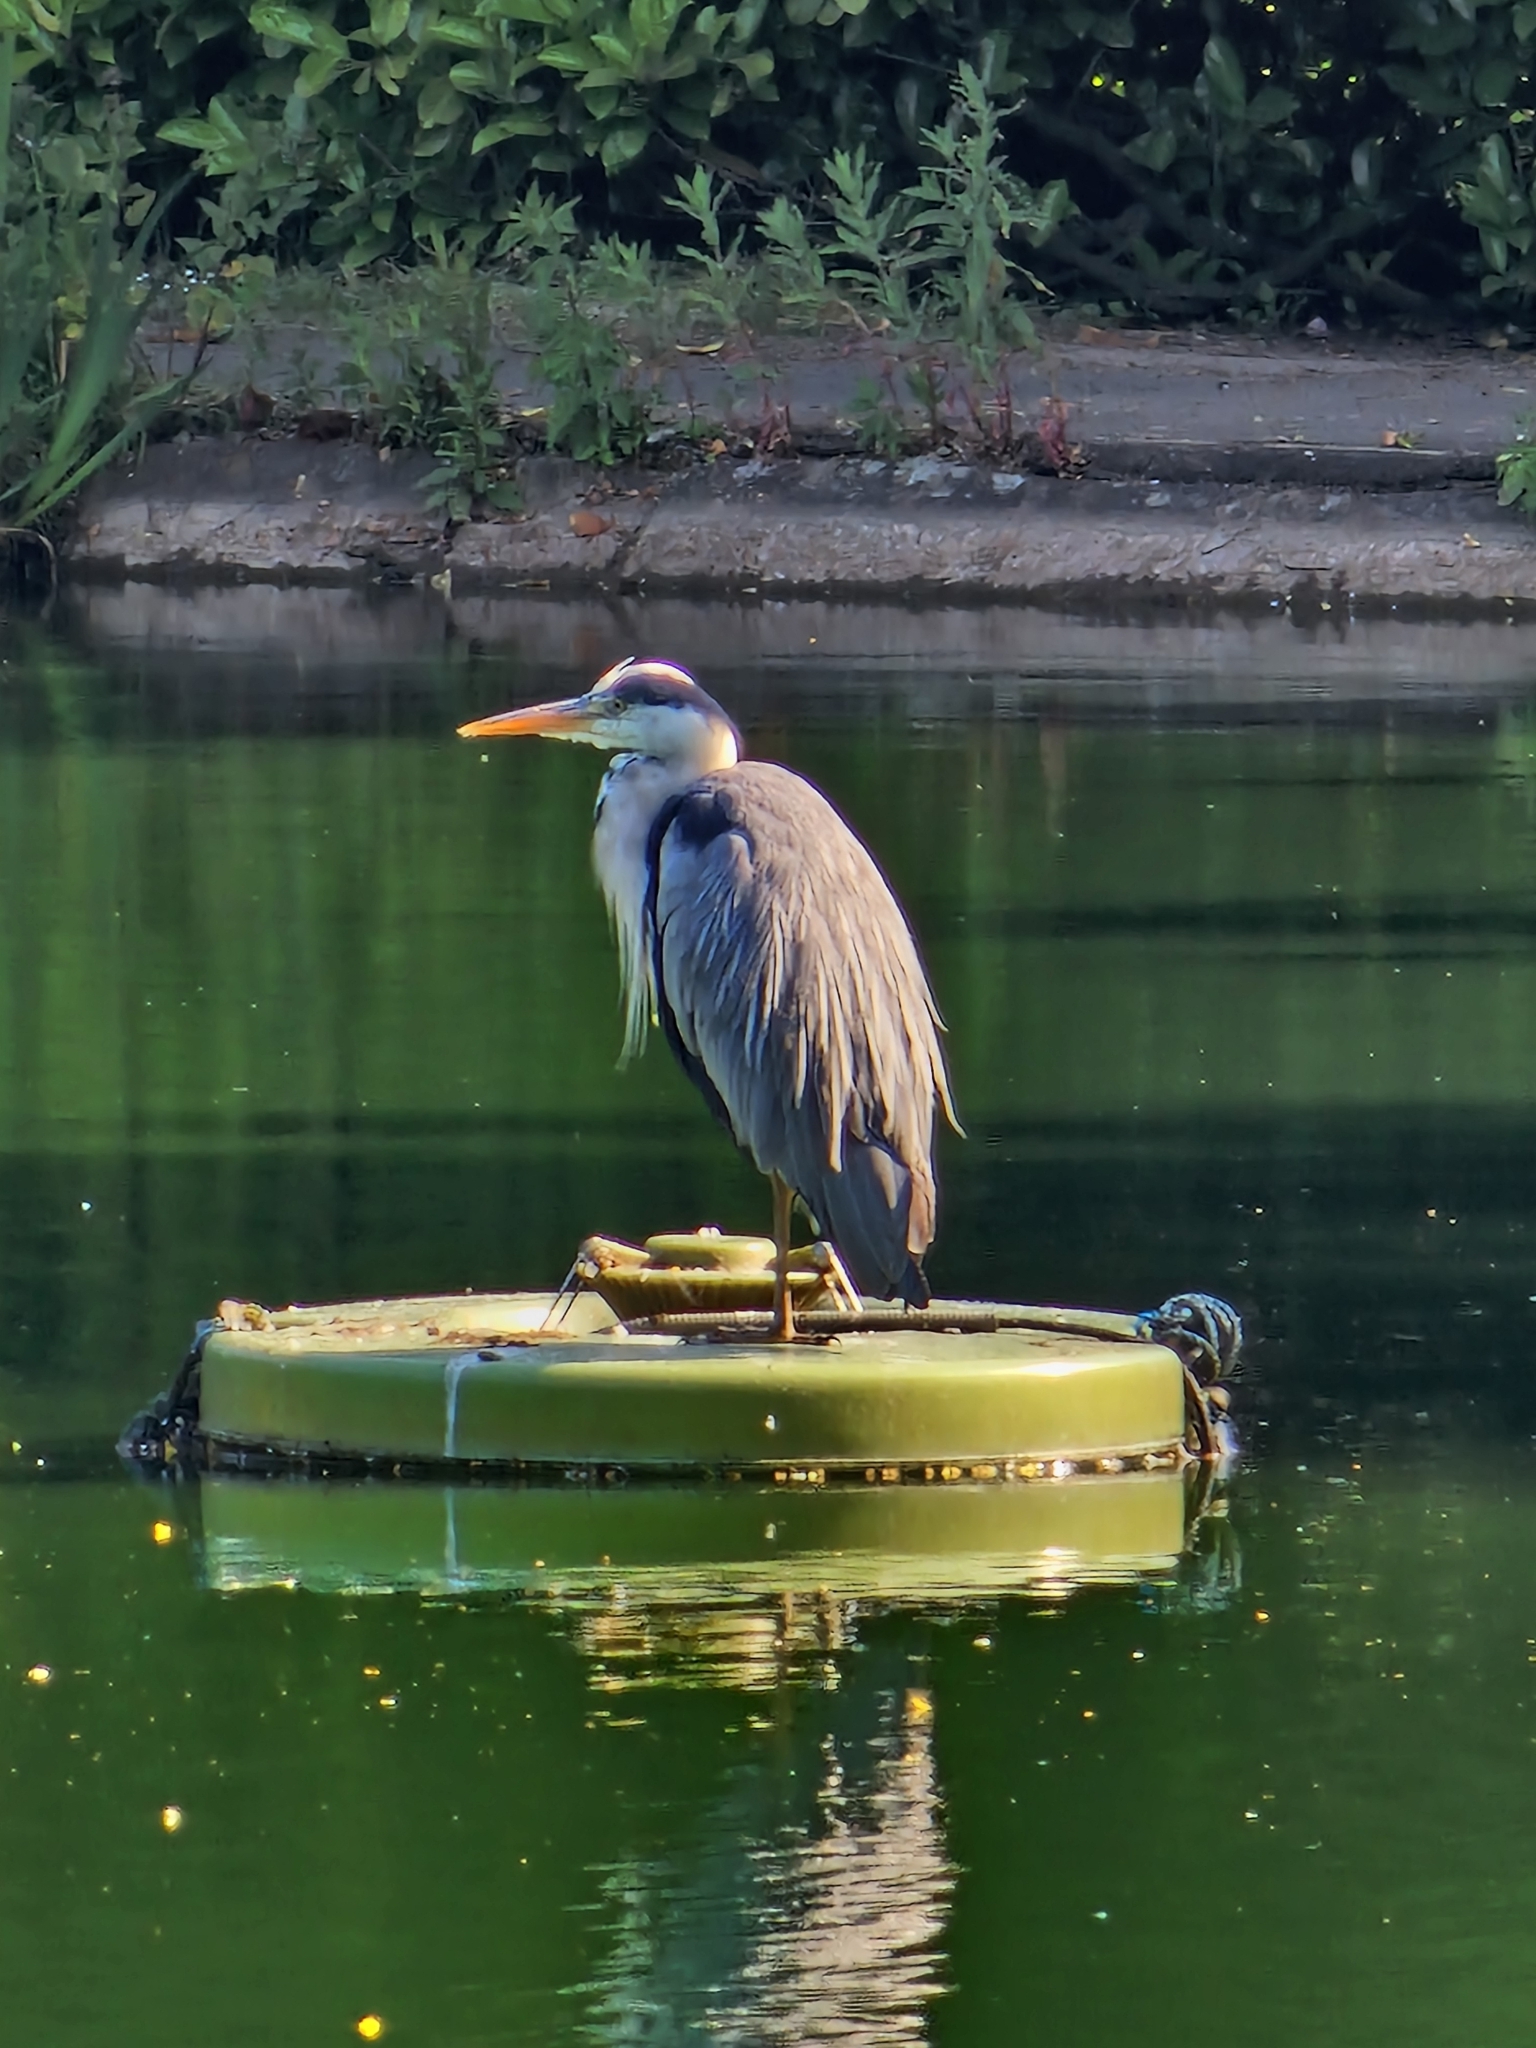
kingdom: Animalia
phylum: Chordata
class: Aves
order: Pelecaniformes
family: Ardeidae
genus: Ardea
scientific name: Ardea cinerea
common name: Grey heron
